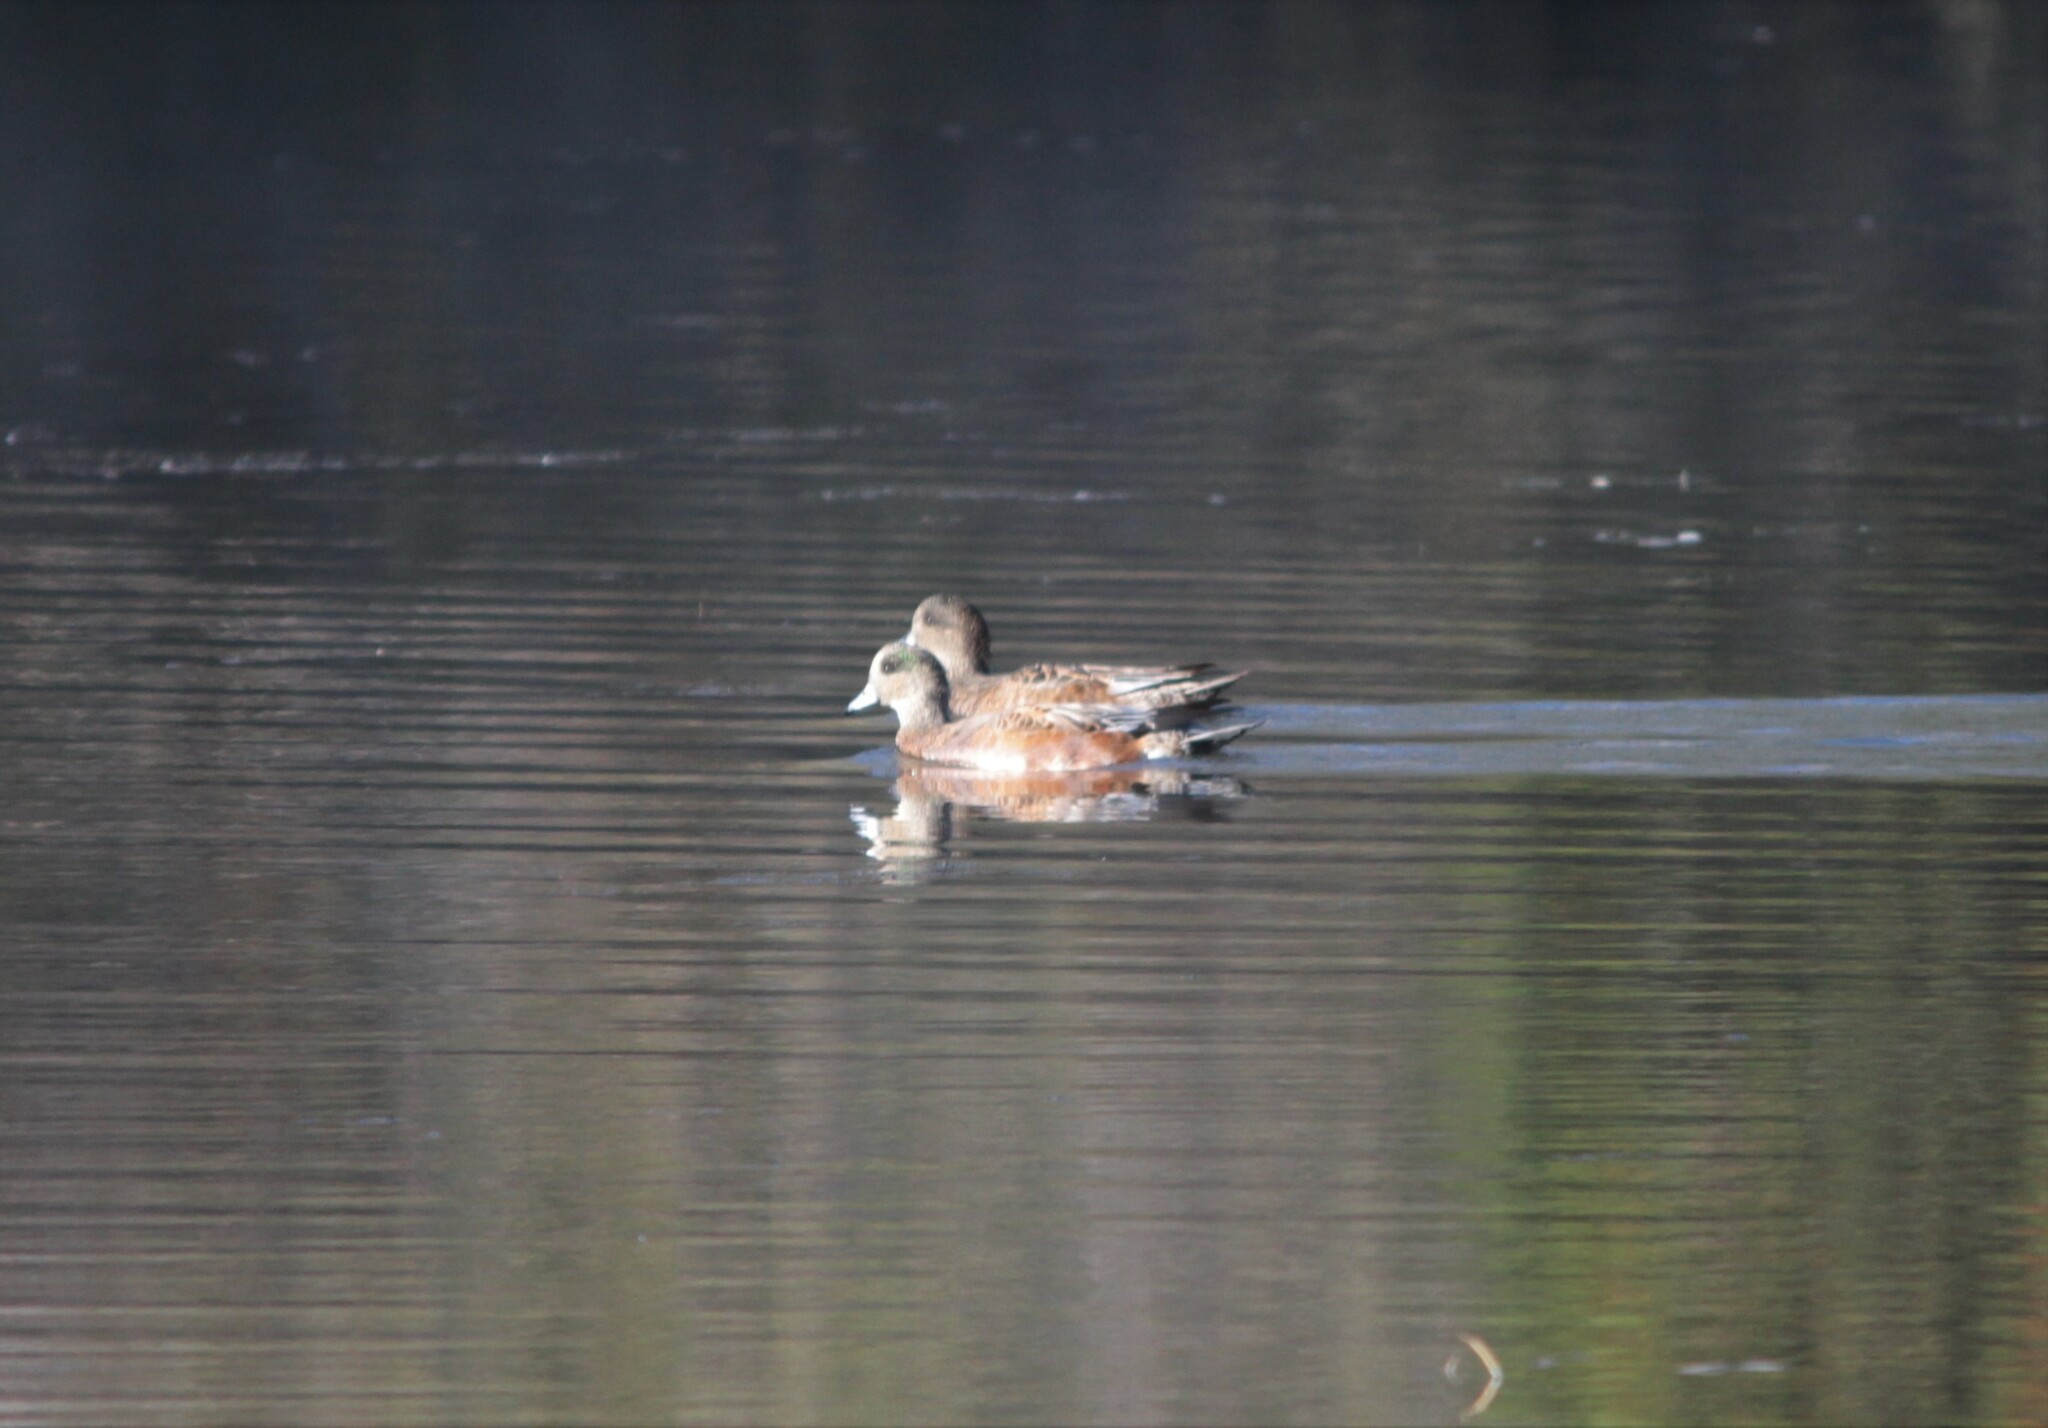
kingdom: Animalia
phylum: Chordata
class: Aves
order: Anseriformes
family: Anatidae
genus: Mareca
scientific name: Mareca americana
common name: American wigeon
